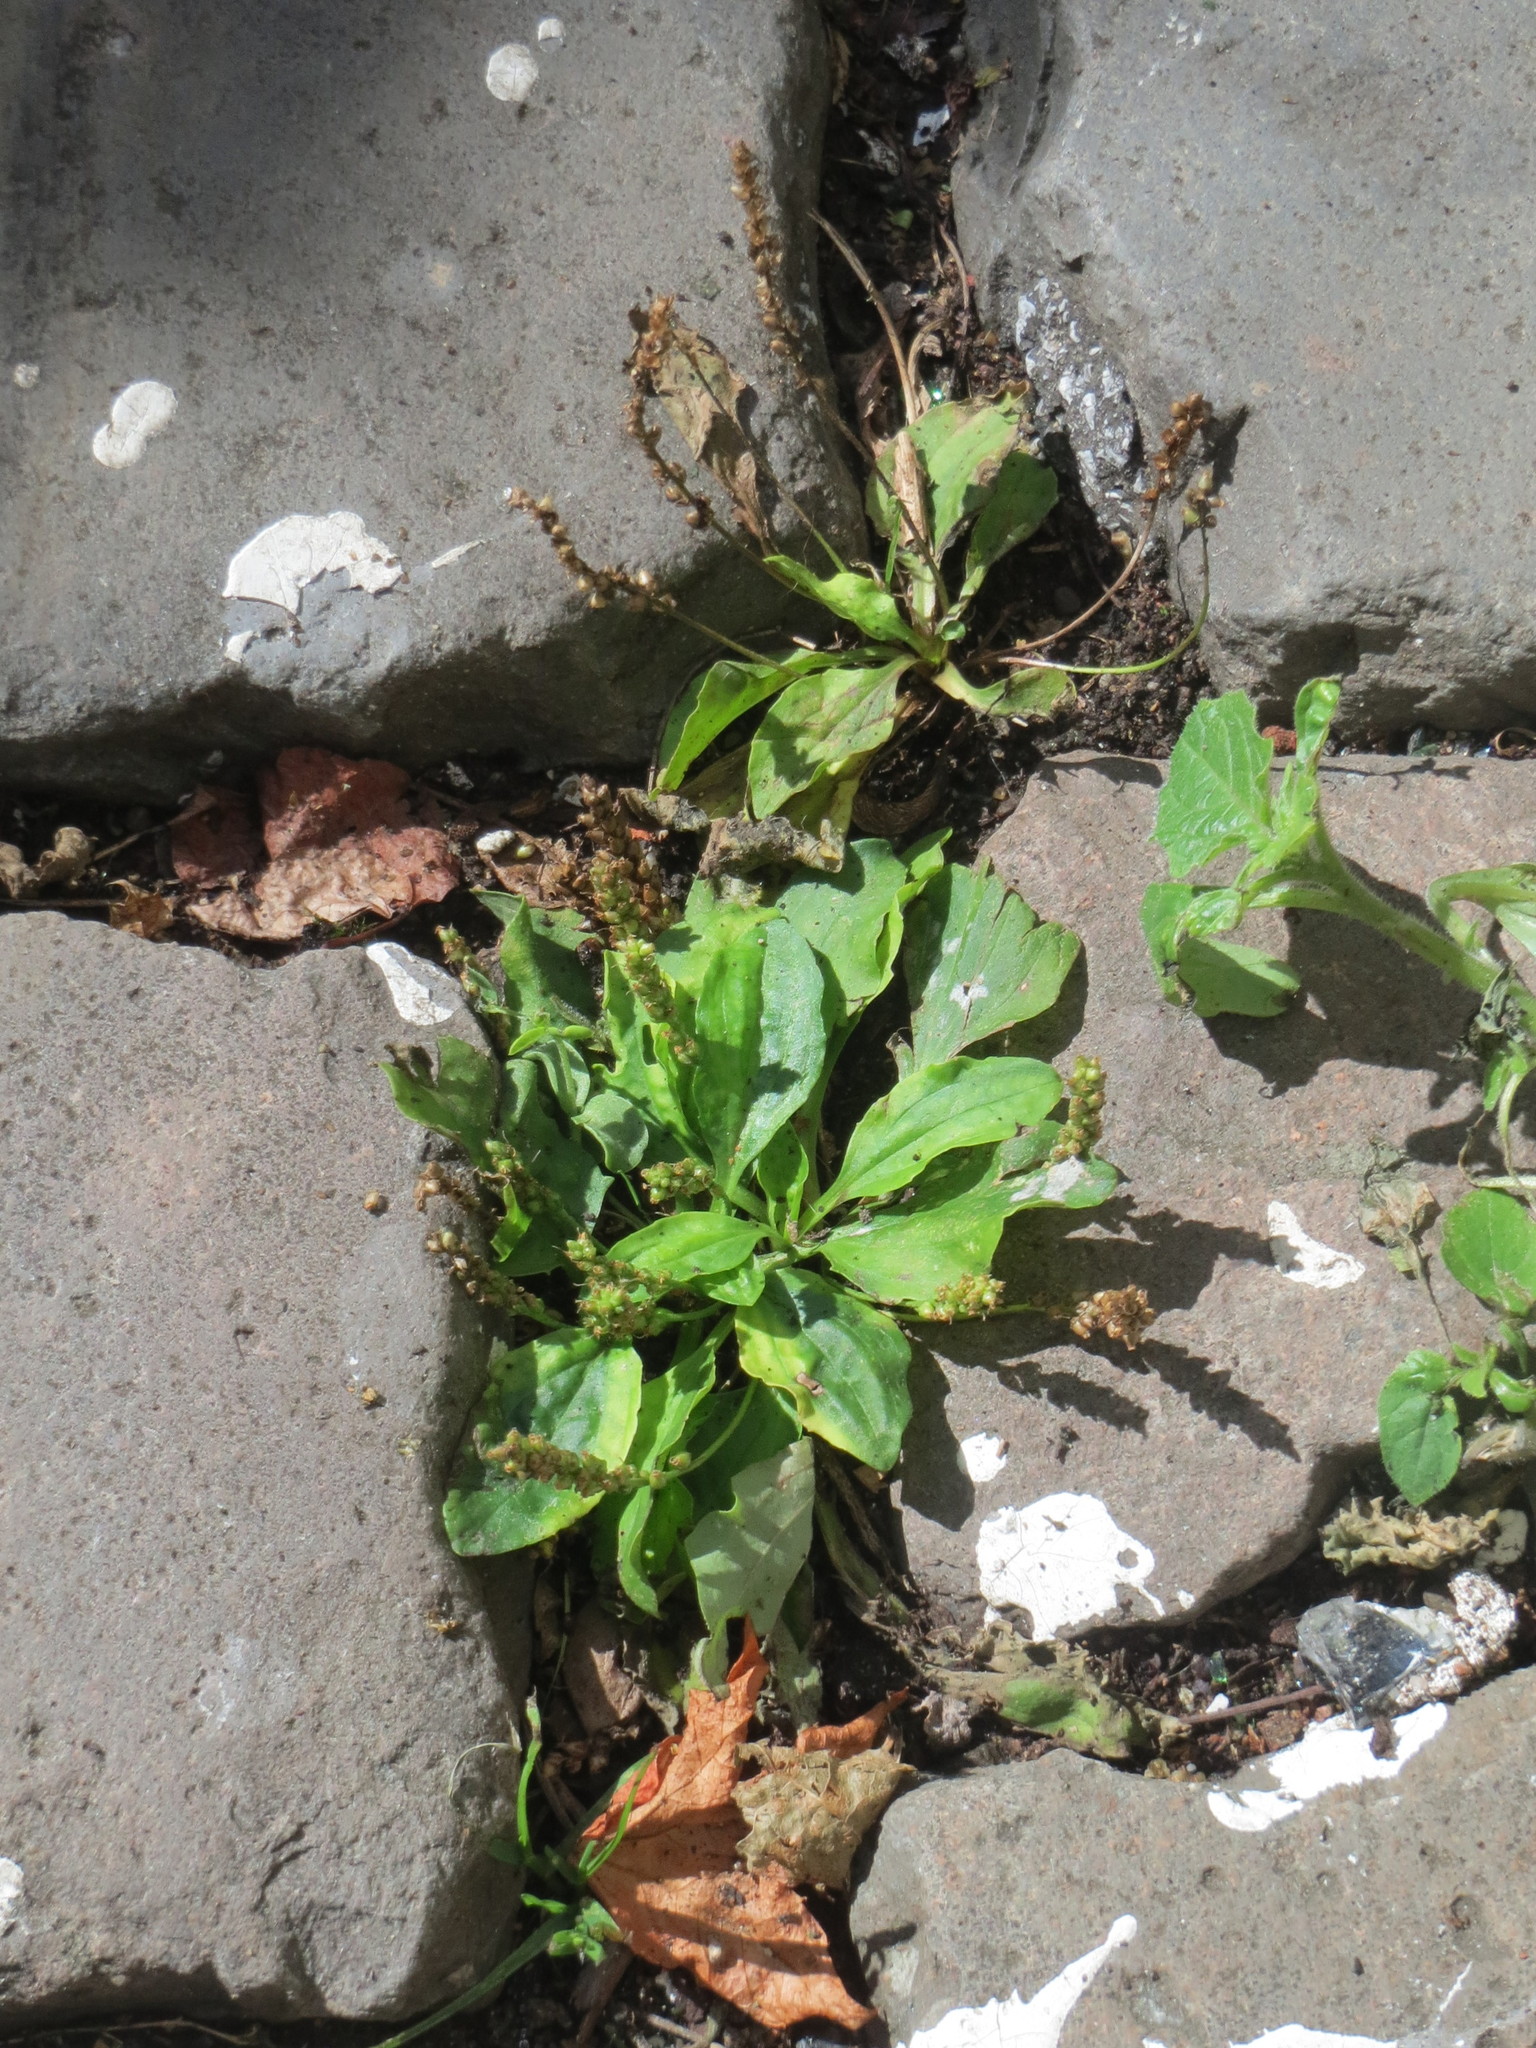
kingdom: Plantae
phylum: Tracheophyta
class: Magnoliopsida
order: Lamiales
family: Plantaginaceae
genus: Plantago
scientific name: Plantago major
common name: Common plantain
